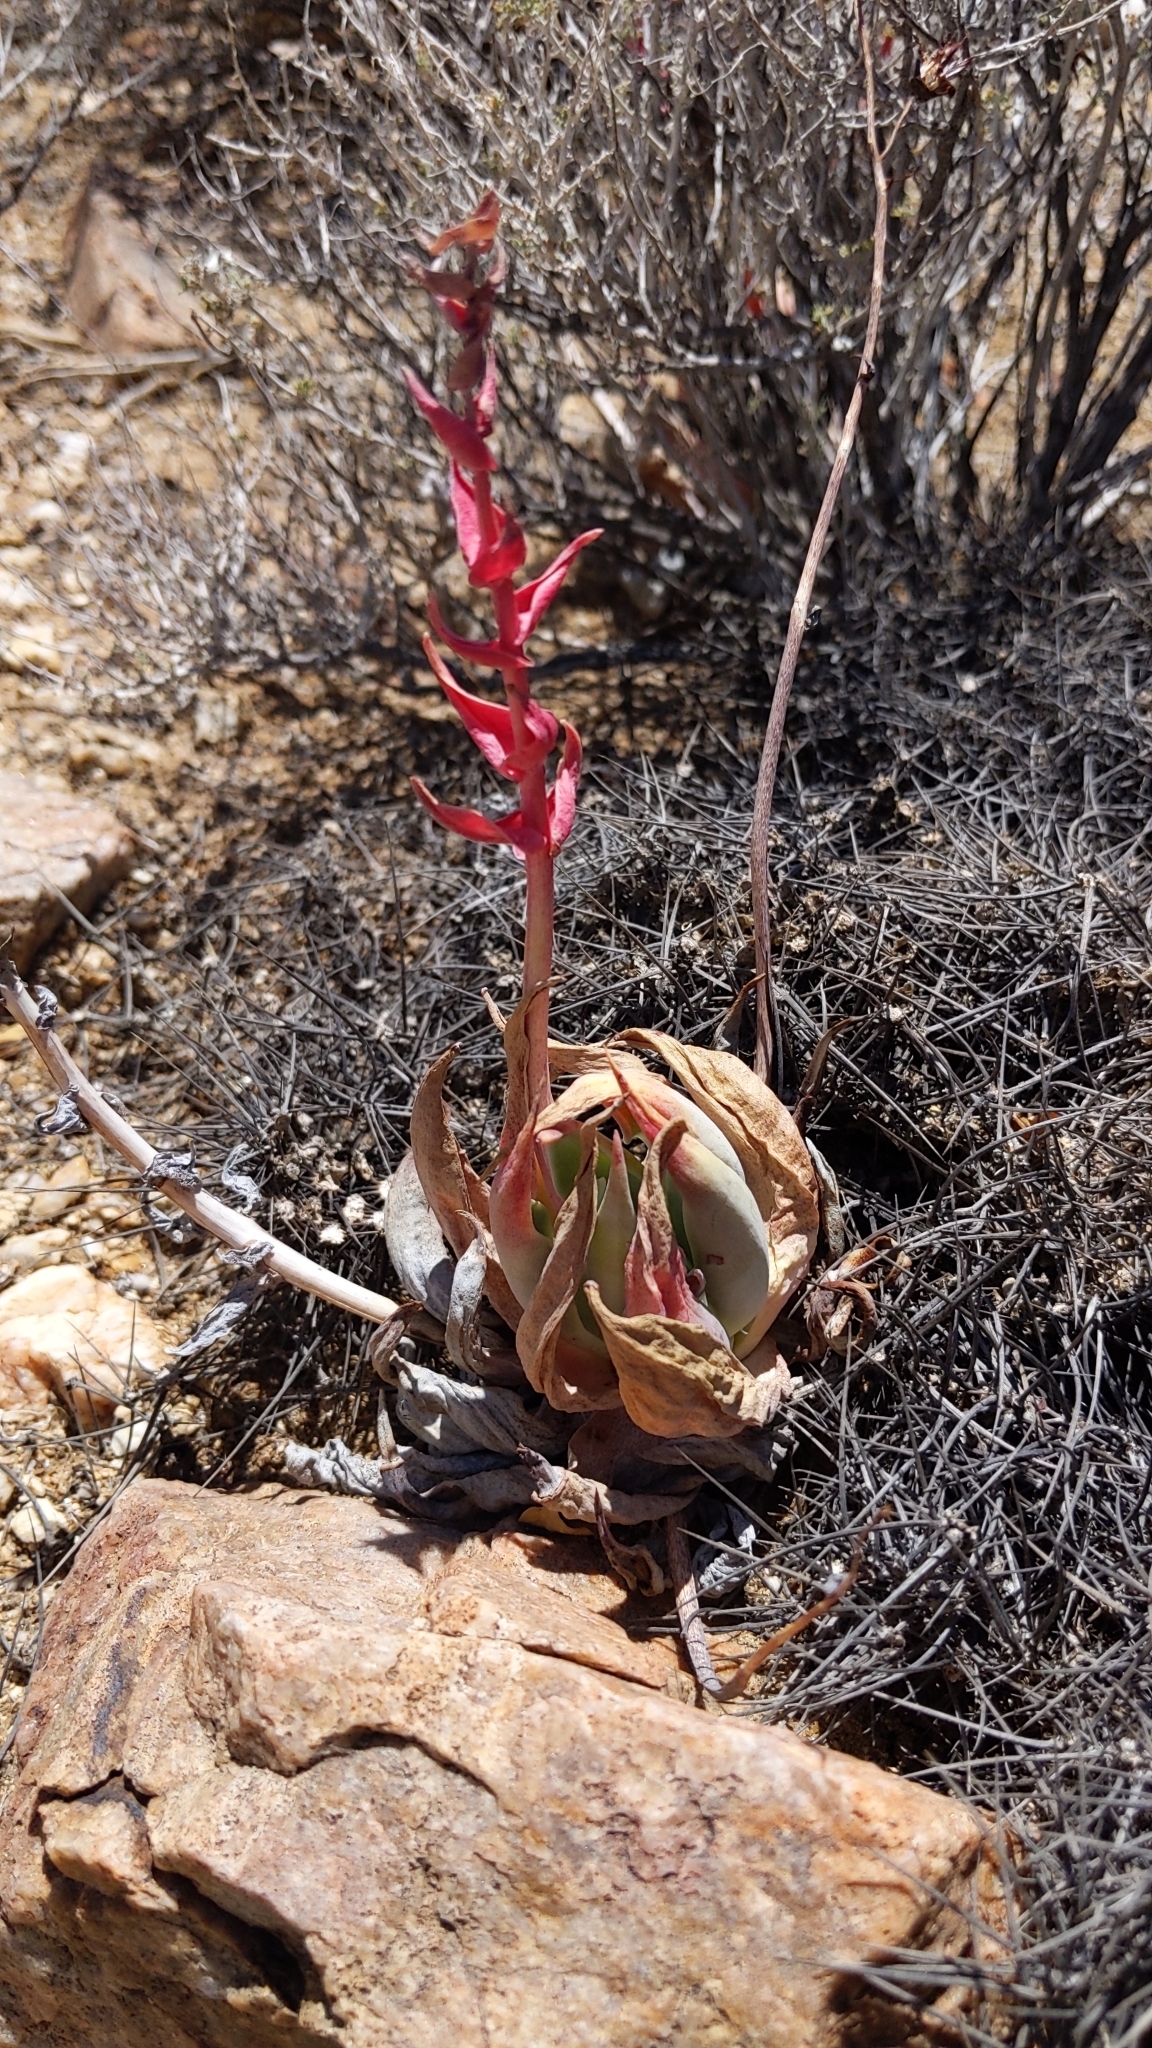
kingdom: Plantae
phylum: Tracheophyta
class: Magnoliopsida
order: Saxifragales
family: Crassulaceae
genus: Dudleya
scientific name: Dudleya arizonica
